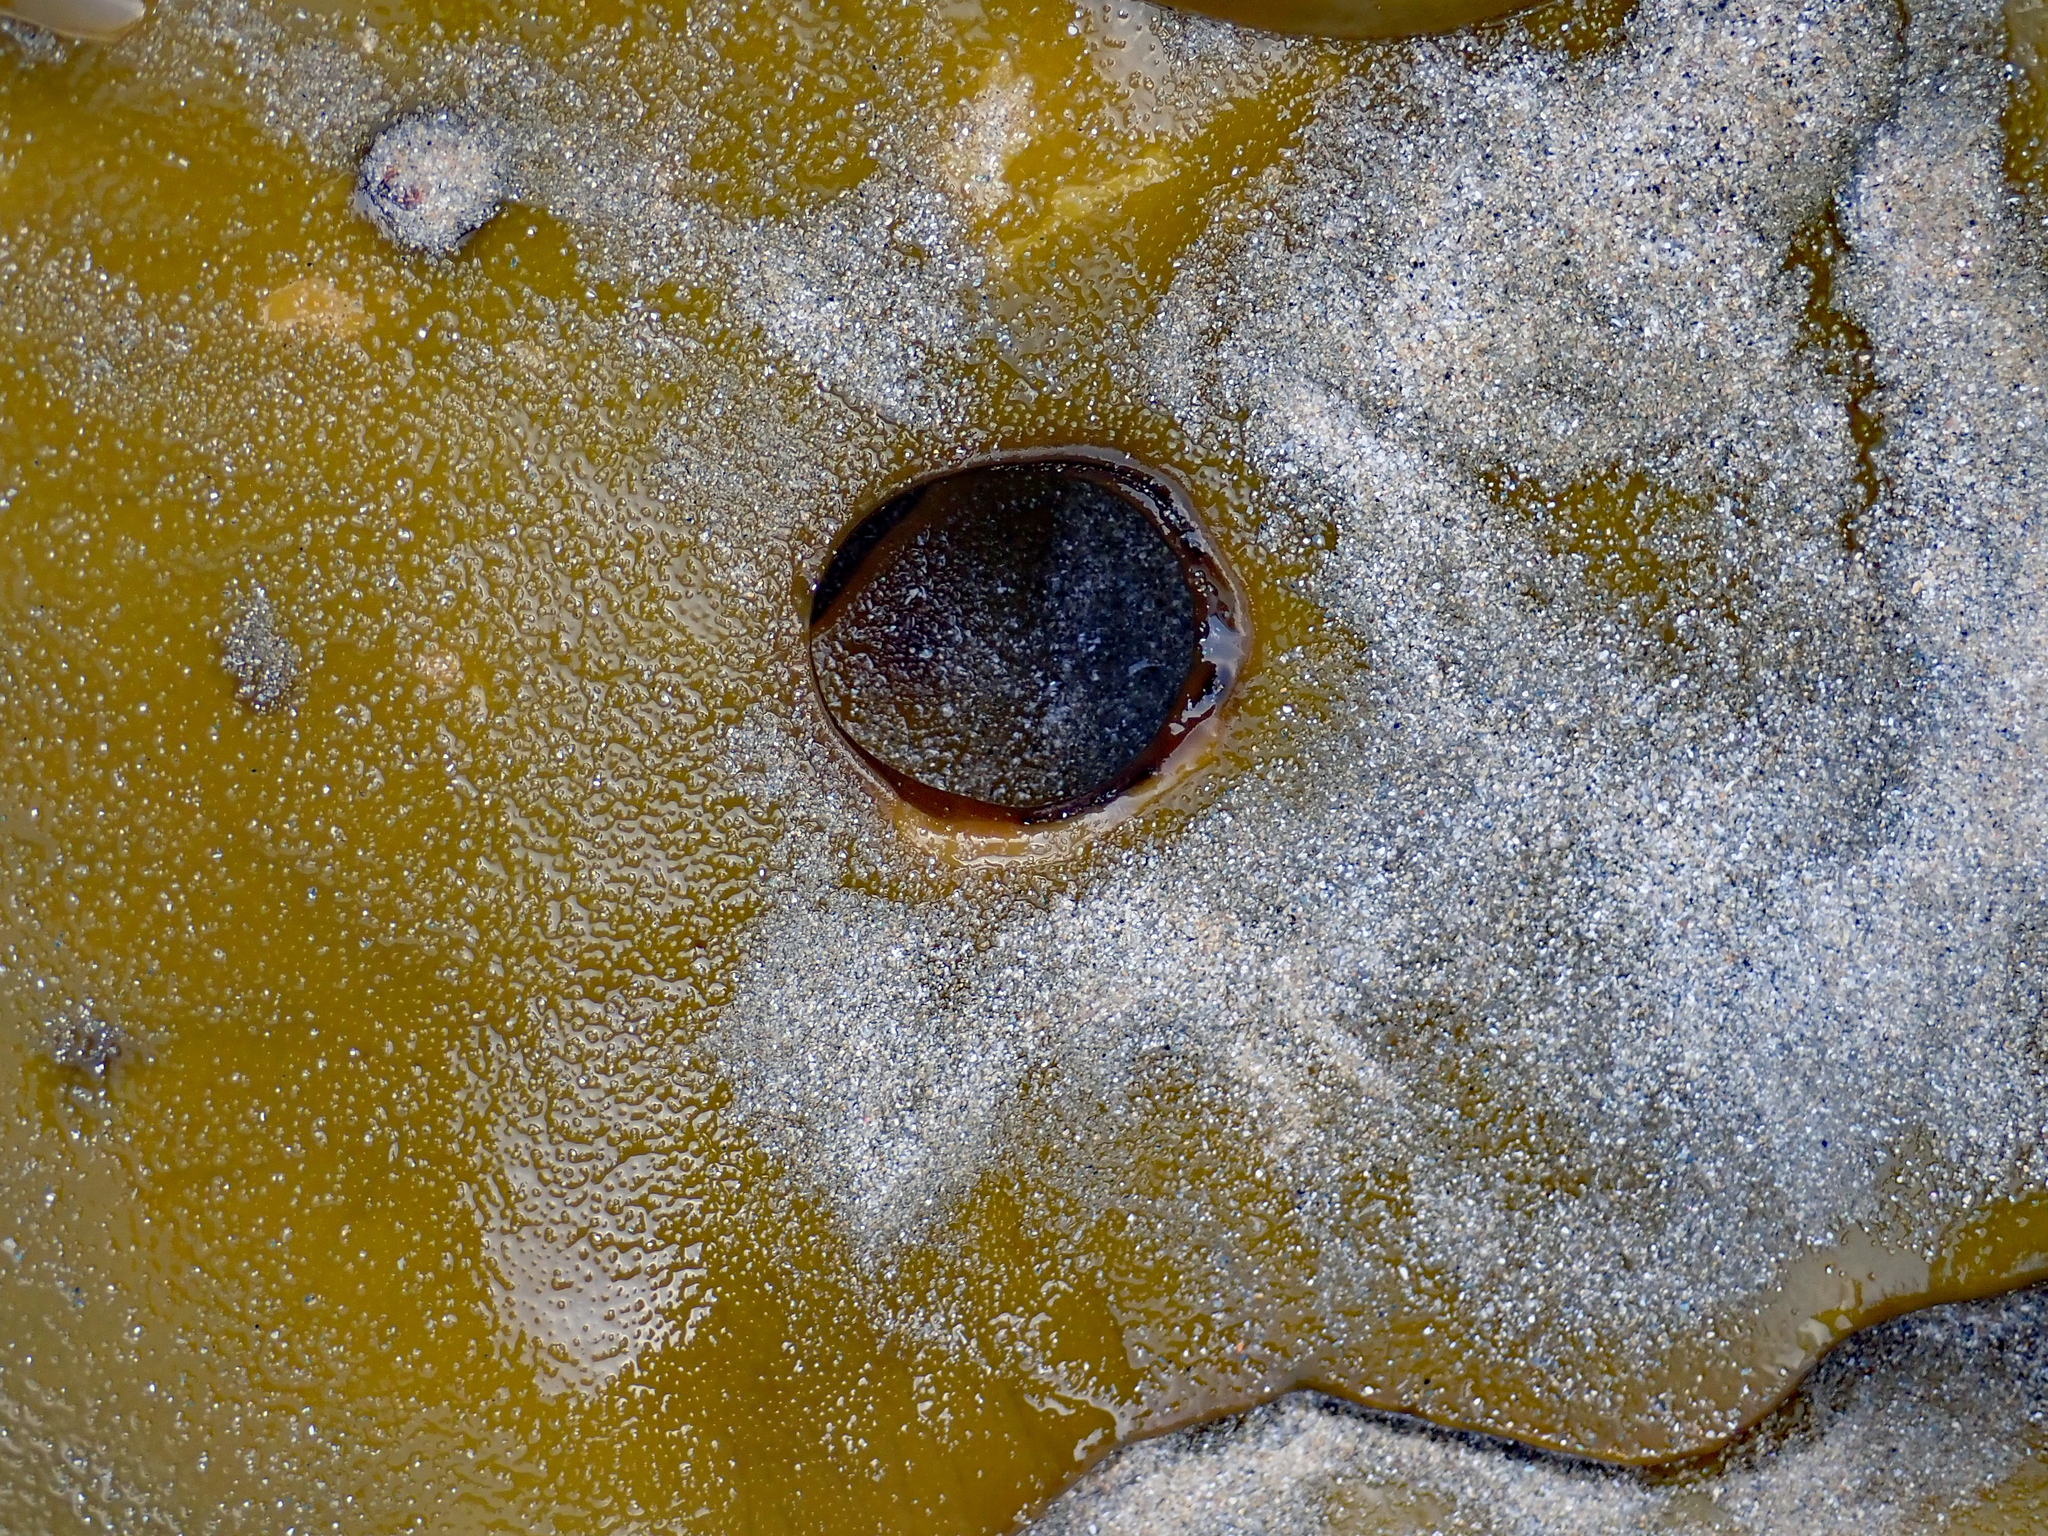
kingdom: Chromista
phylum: Ochrophyta
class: Phaeophyceae
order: Fucales
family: Durvillaeaceae
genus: Durvillaea
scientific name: Durvillaea poha
